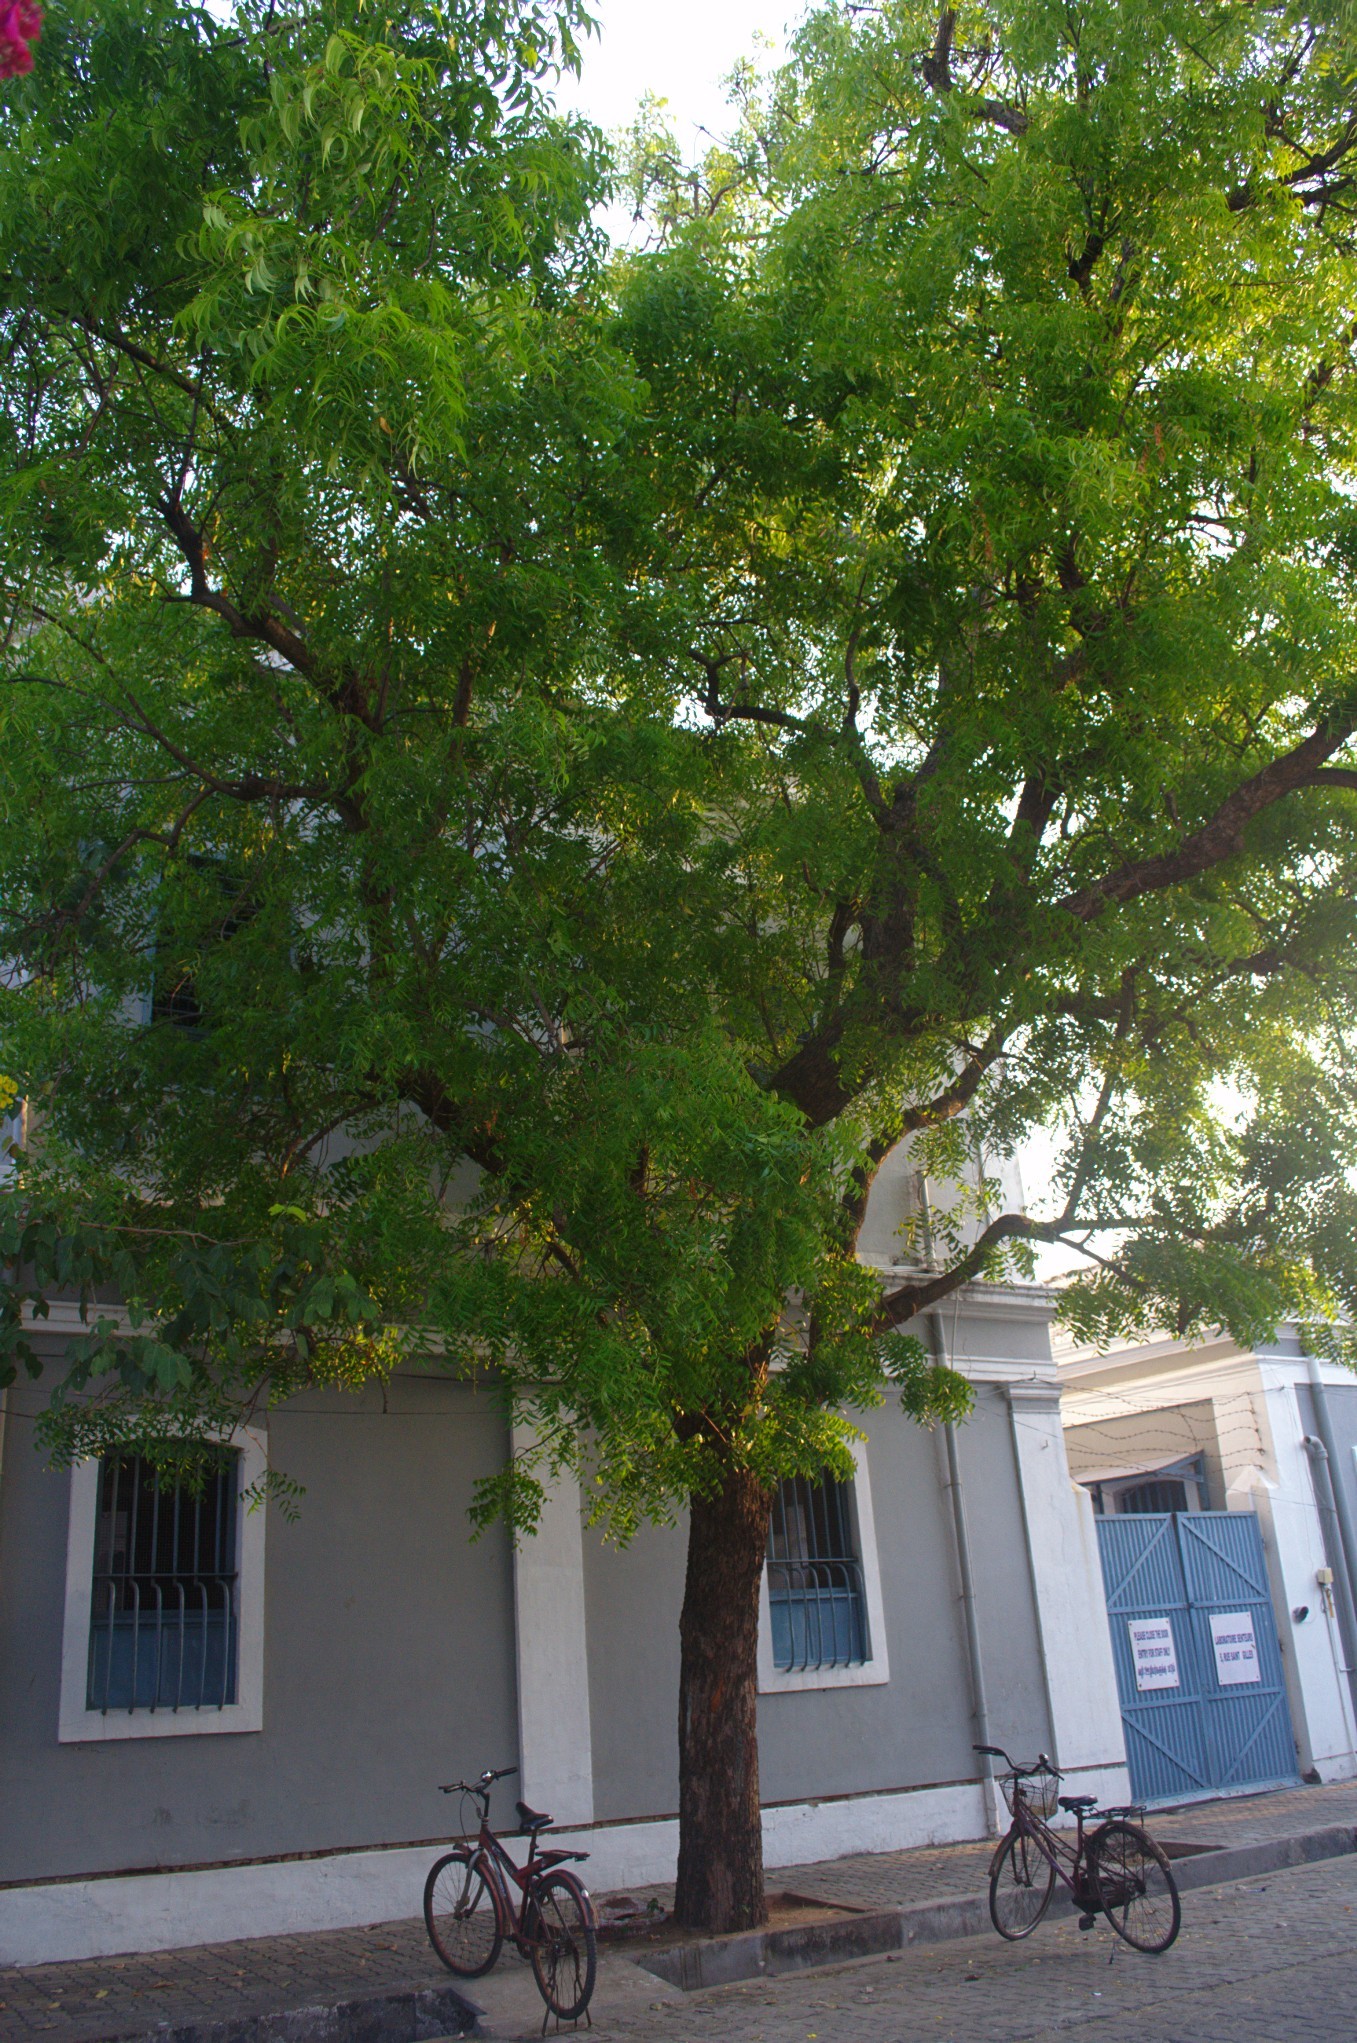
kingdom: Plantae
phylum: Tracheophyta
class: Magnoliopsida
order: Sapindales
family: Meliaceae
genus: Azadirachta
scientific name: Azadirachta indica
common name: Neem
